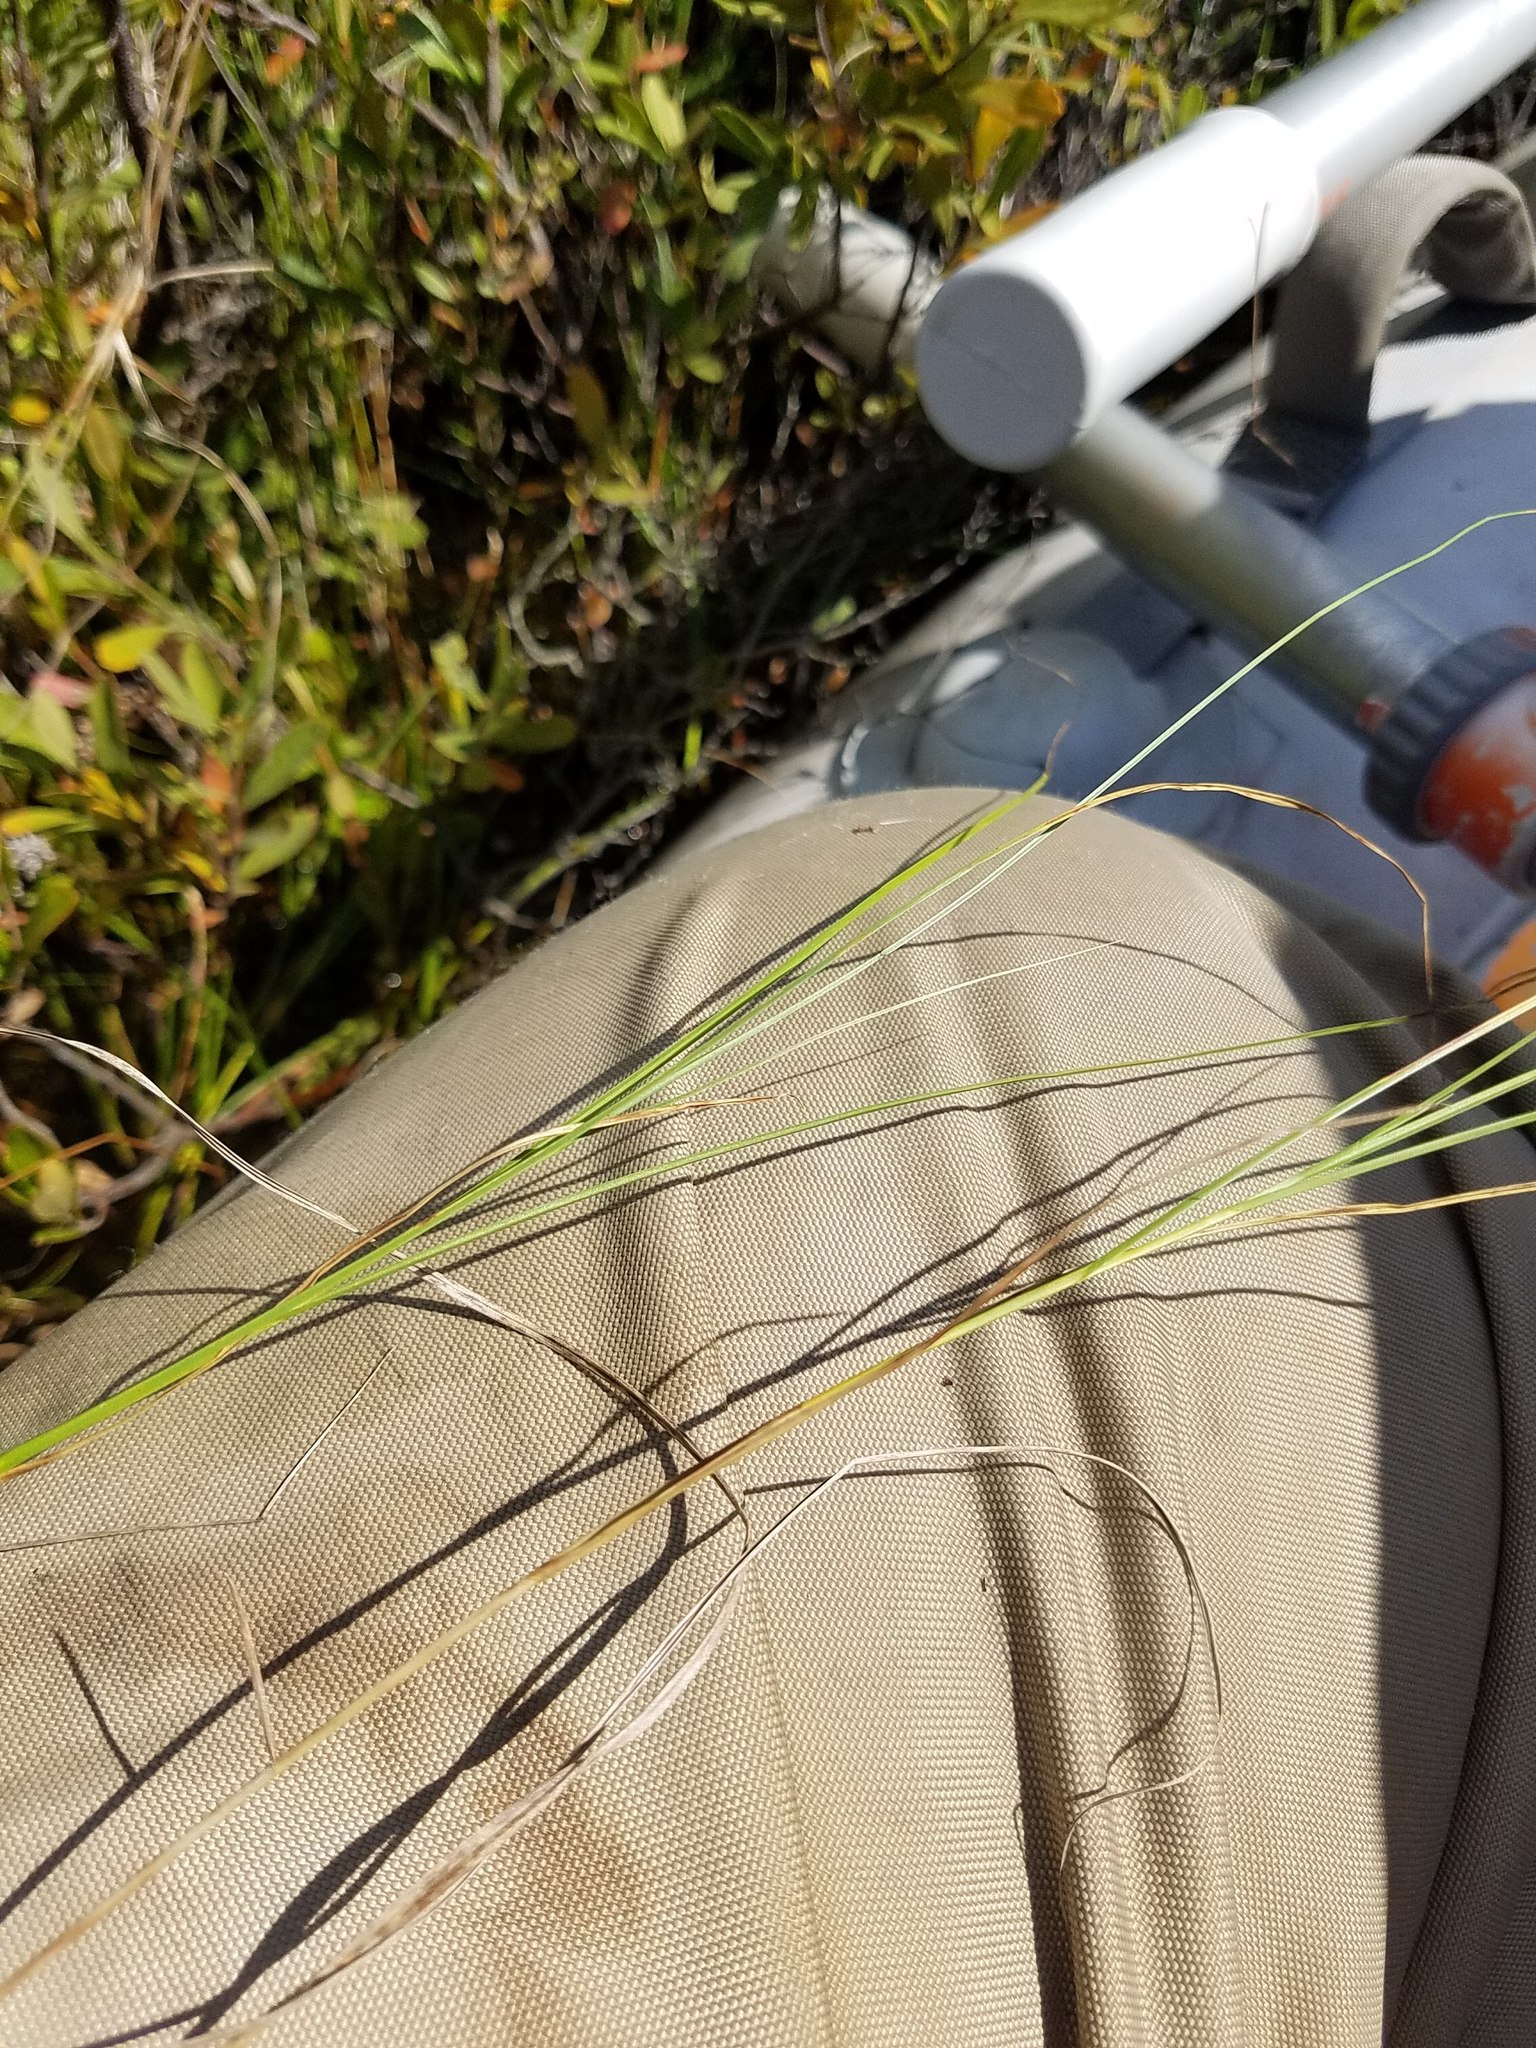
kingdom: Plantae
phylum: Tracheophyta
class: Liliopsida
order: Poales
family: Cyperaceae
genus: Carex
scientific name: Carex chordorrhiza
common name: String sedge
